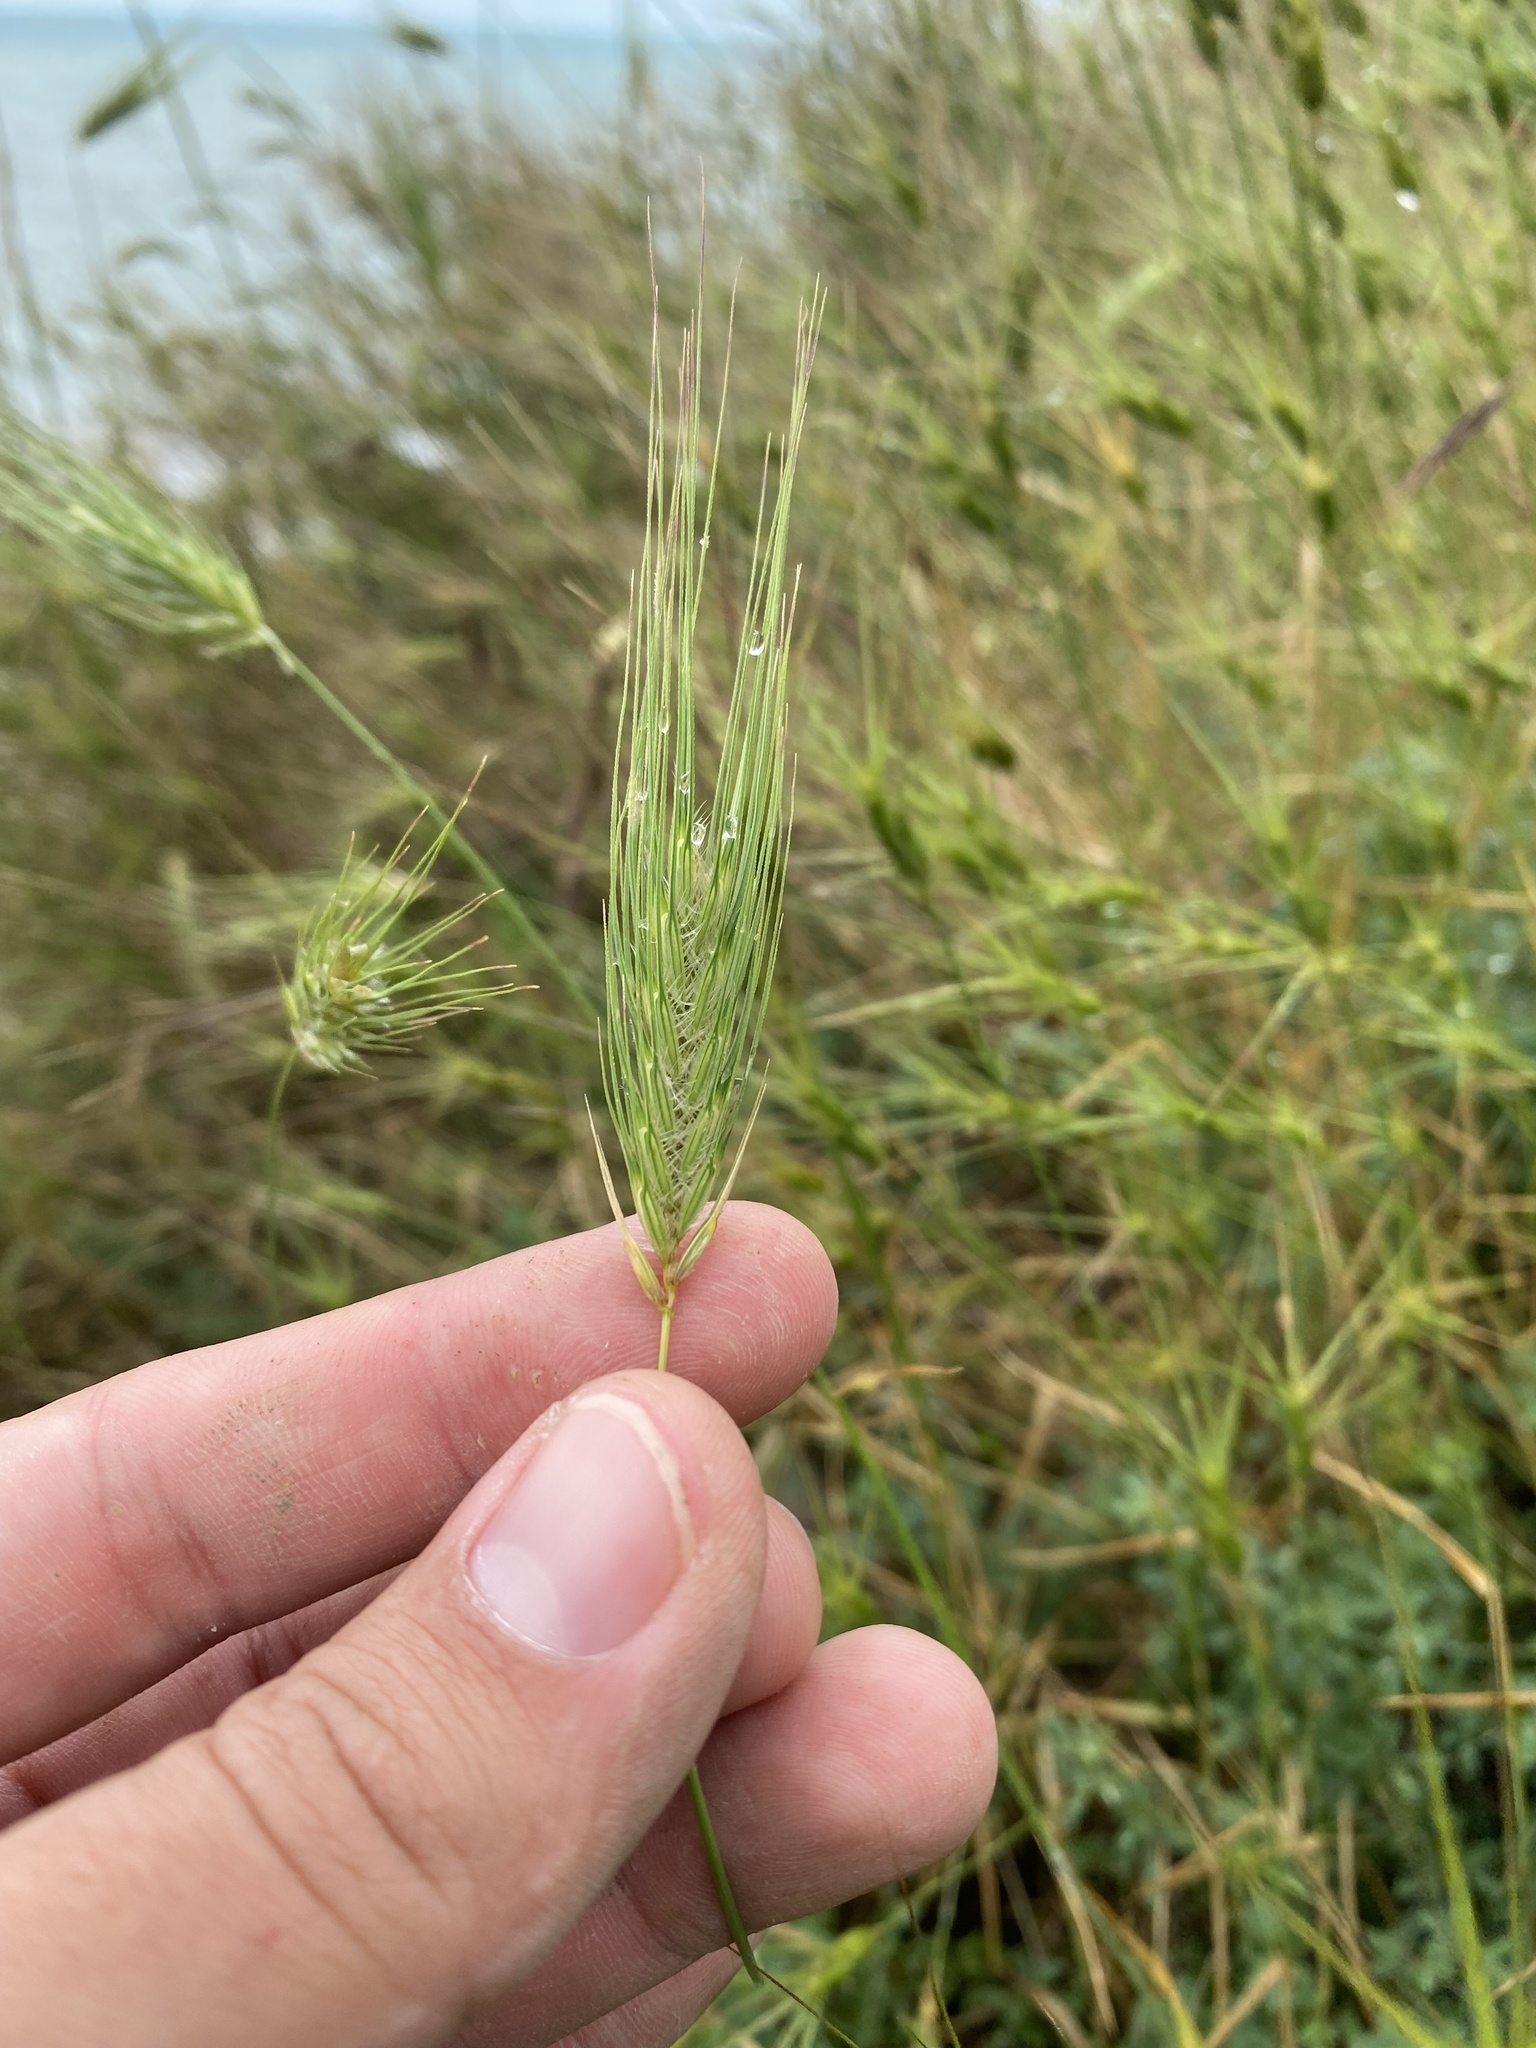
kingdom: Plantae
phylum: Tracheophyta
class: Liliopsida
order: Poales
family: Poaceae
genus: Dasypyrum
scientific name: Dasypyrum villosum
